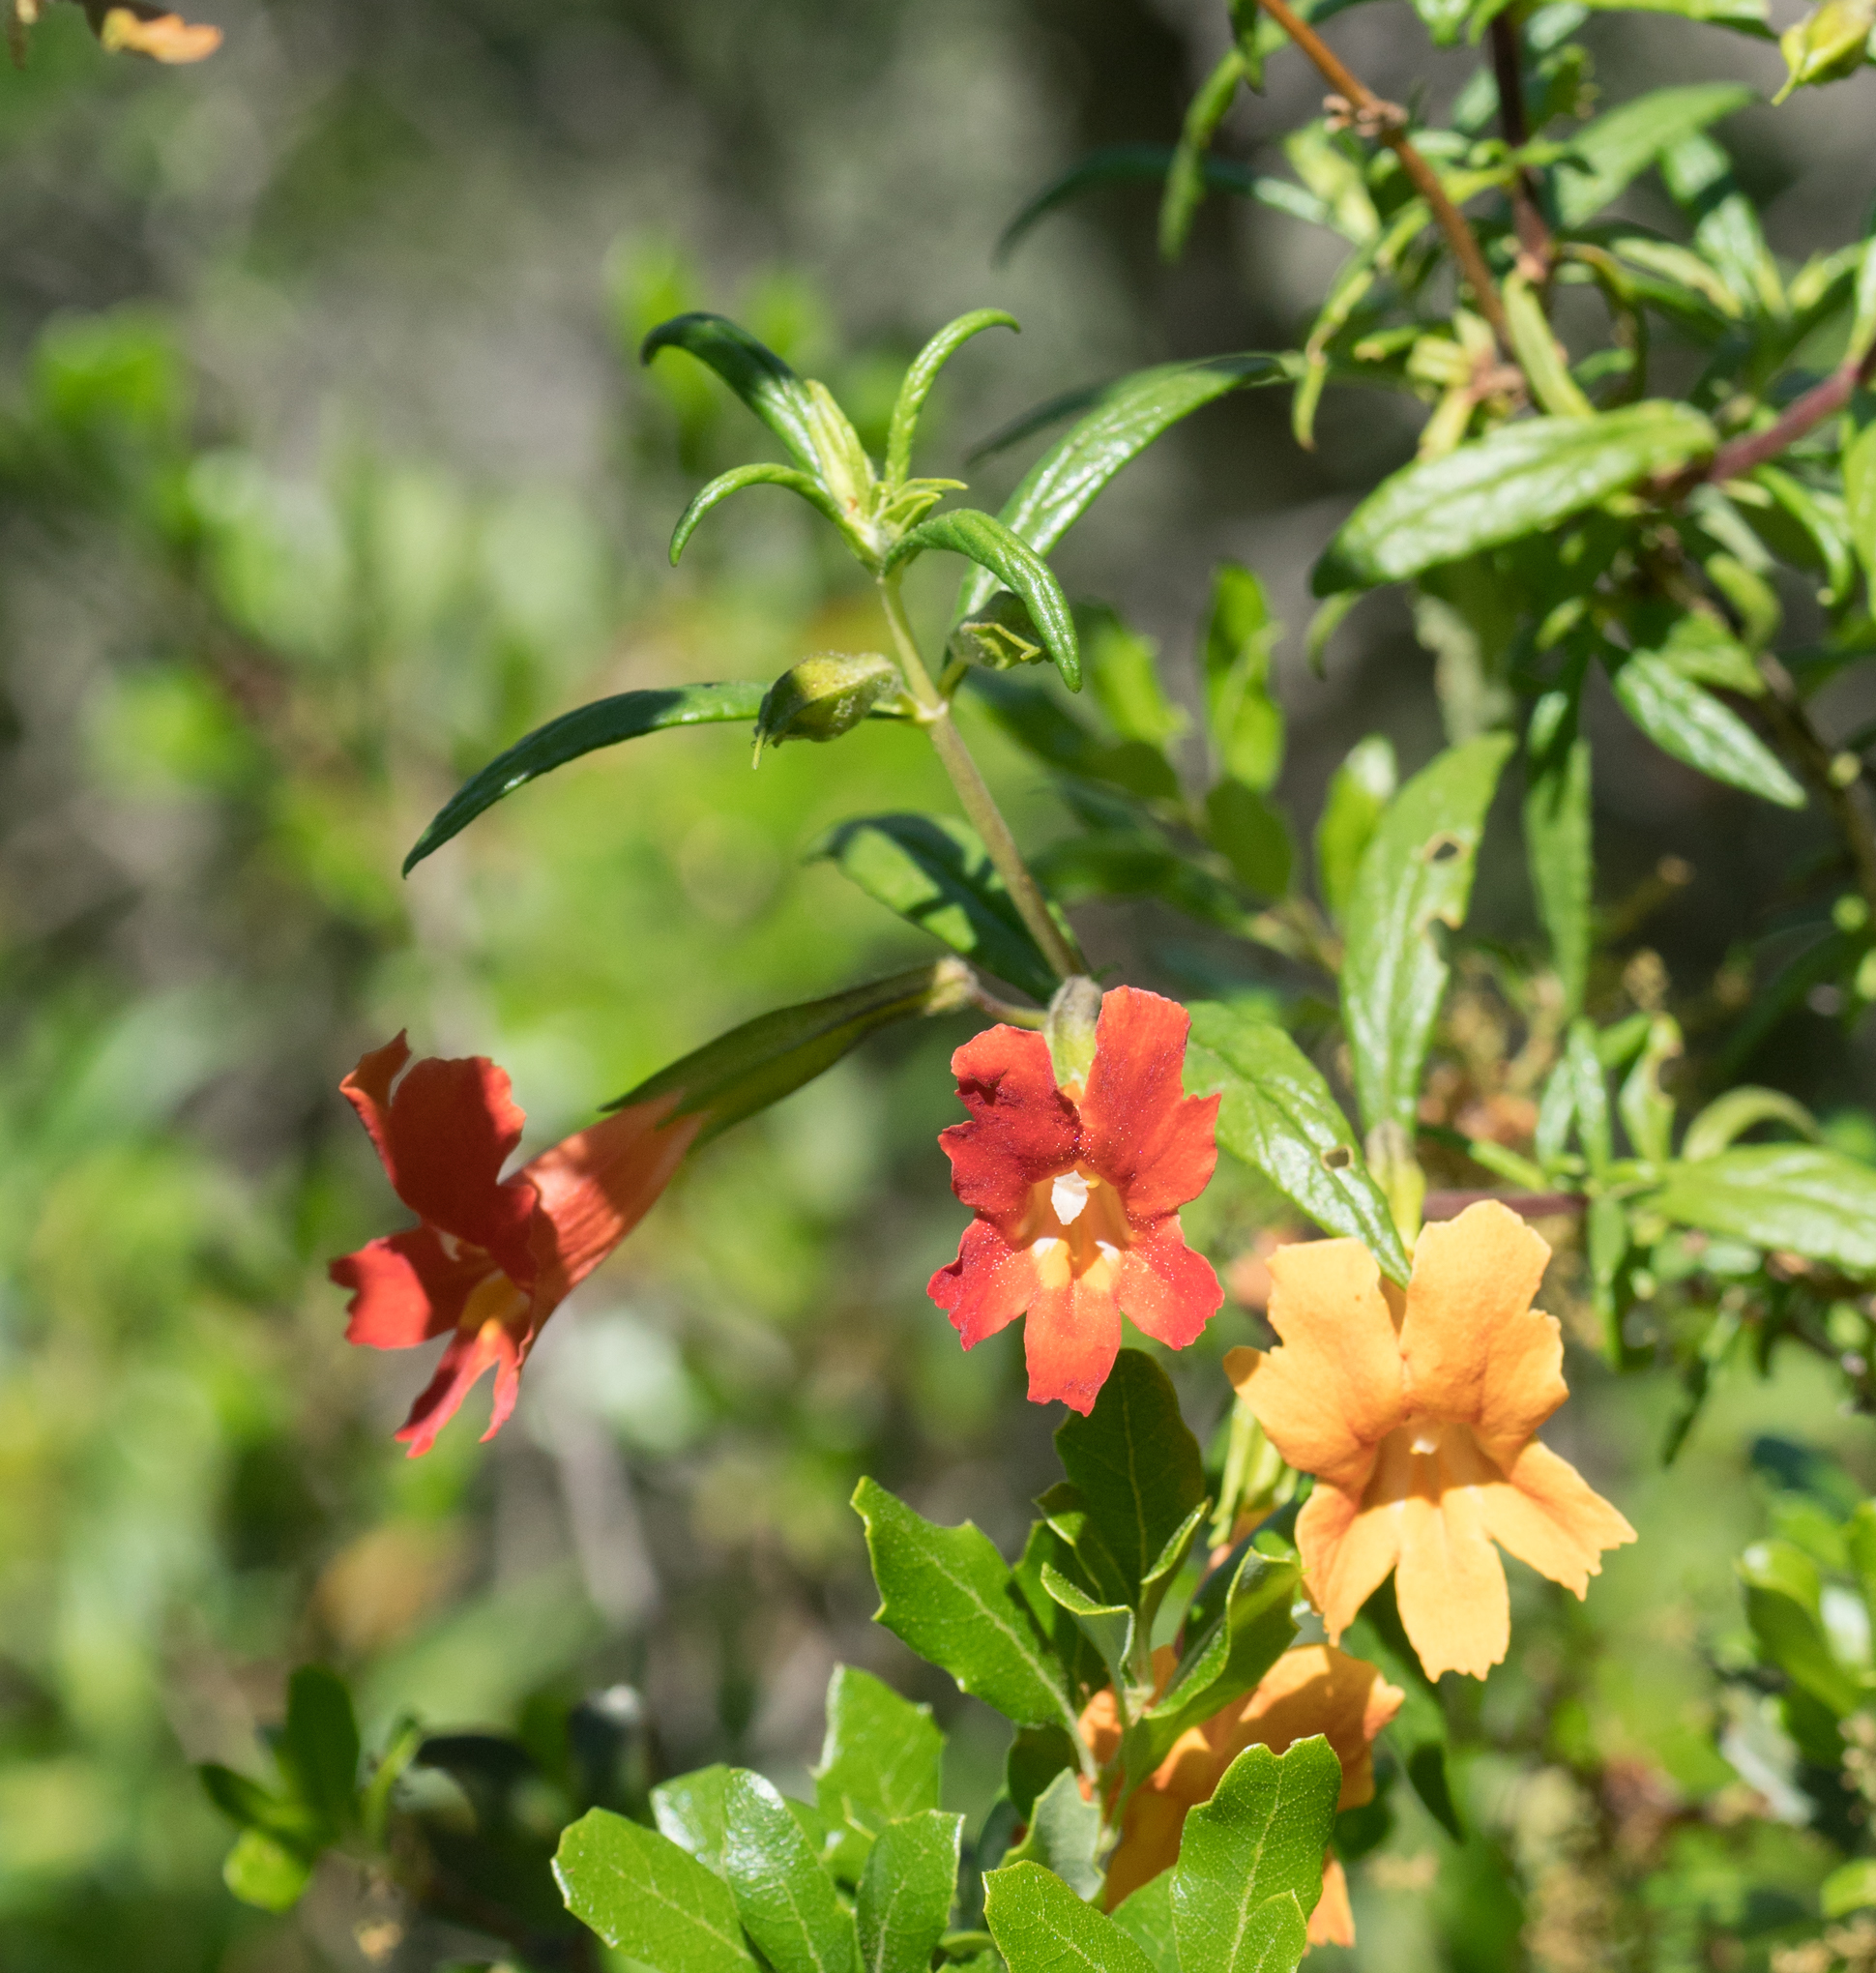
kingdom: Plantae
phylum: Tracheophyta
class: Magnoliopsida
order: Lamiales
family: Phrymaceae
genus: Diplacus
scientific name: Diplacus australis
